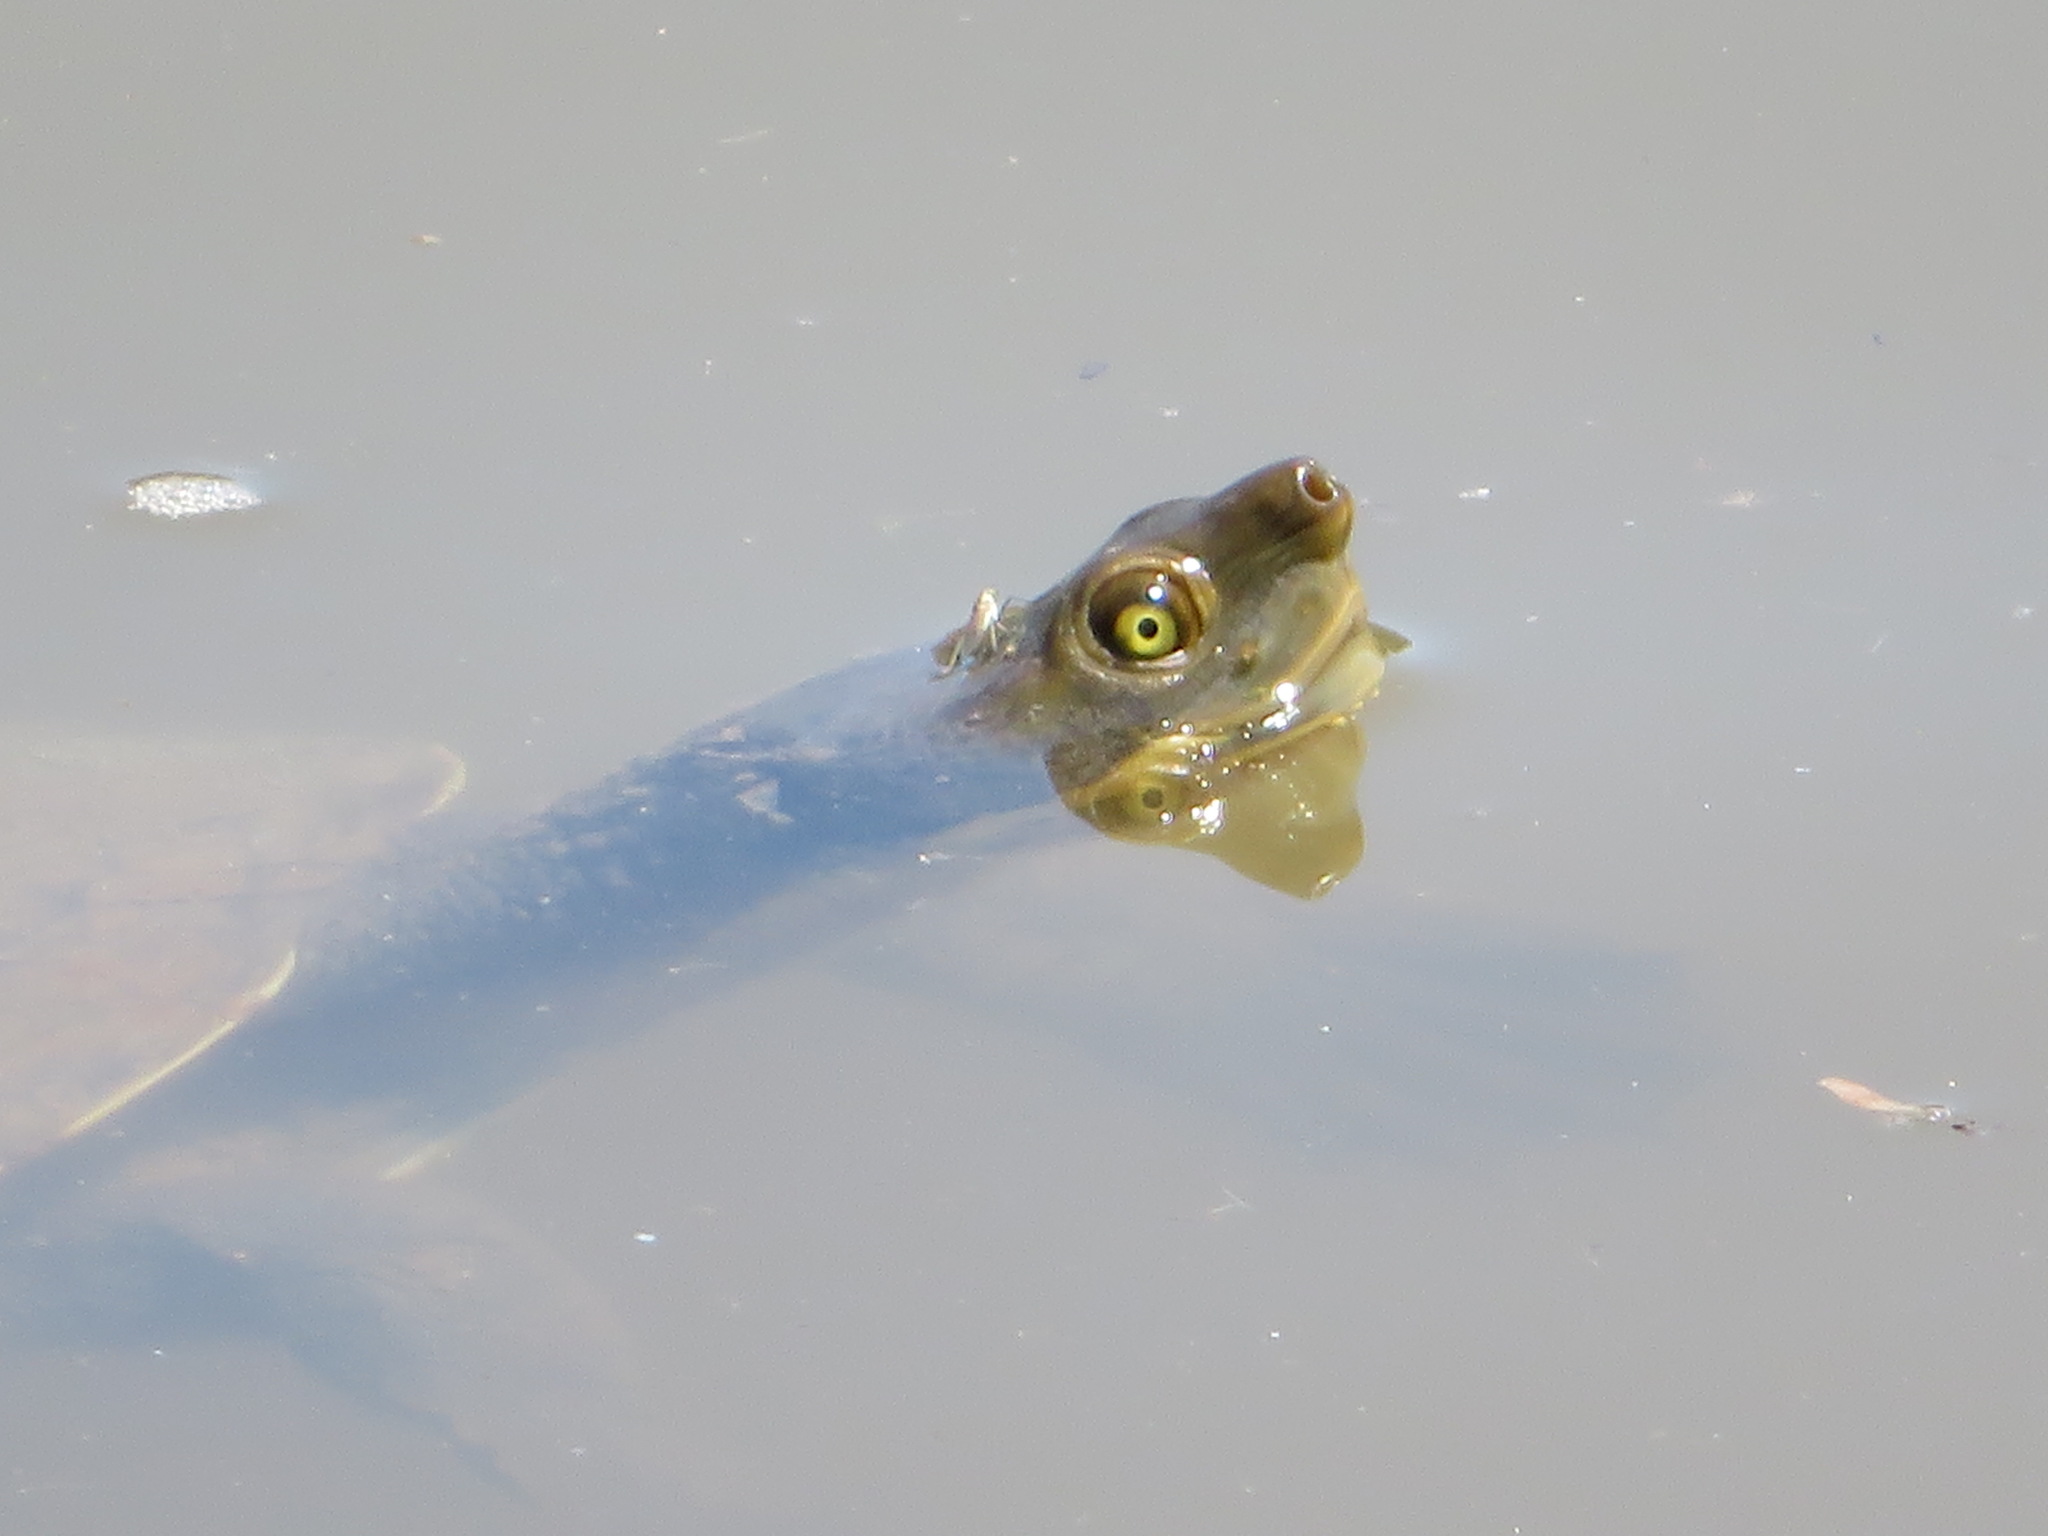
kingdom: Animalia
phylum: Chordata
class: Testudines
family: Chelidae
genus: Emydura
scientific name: Emydura macquarii
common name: Murray river turtle
